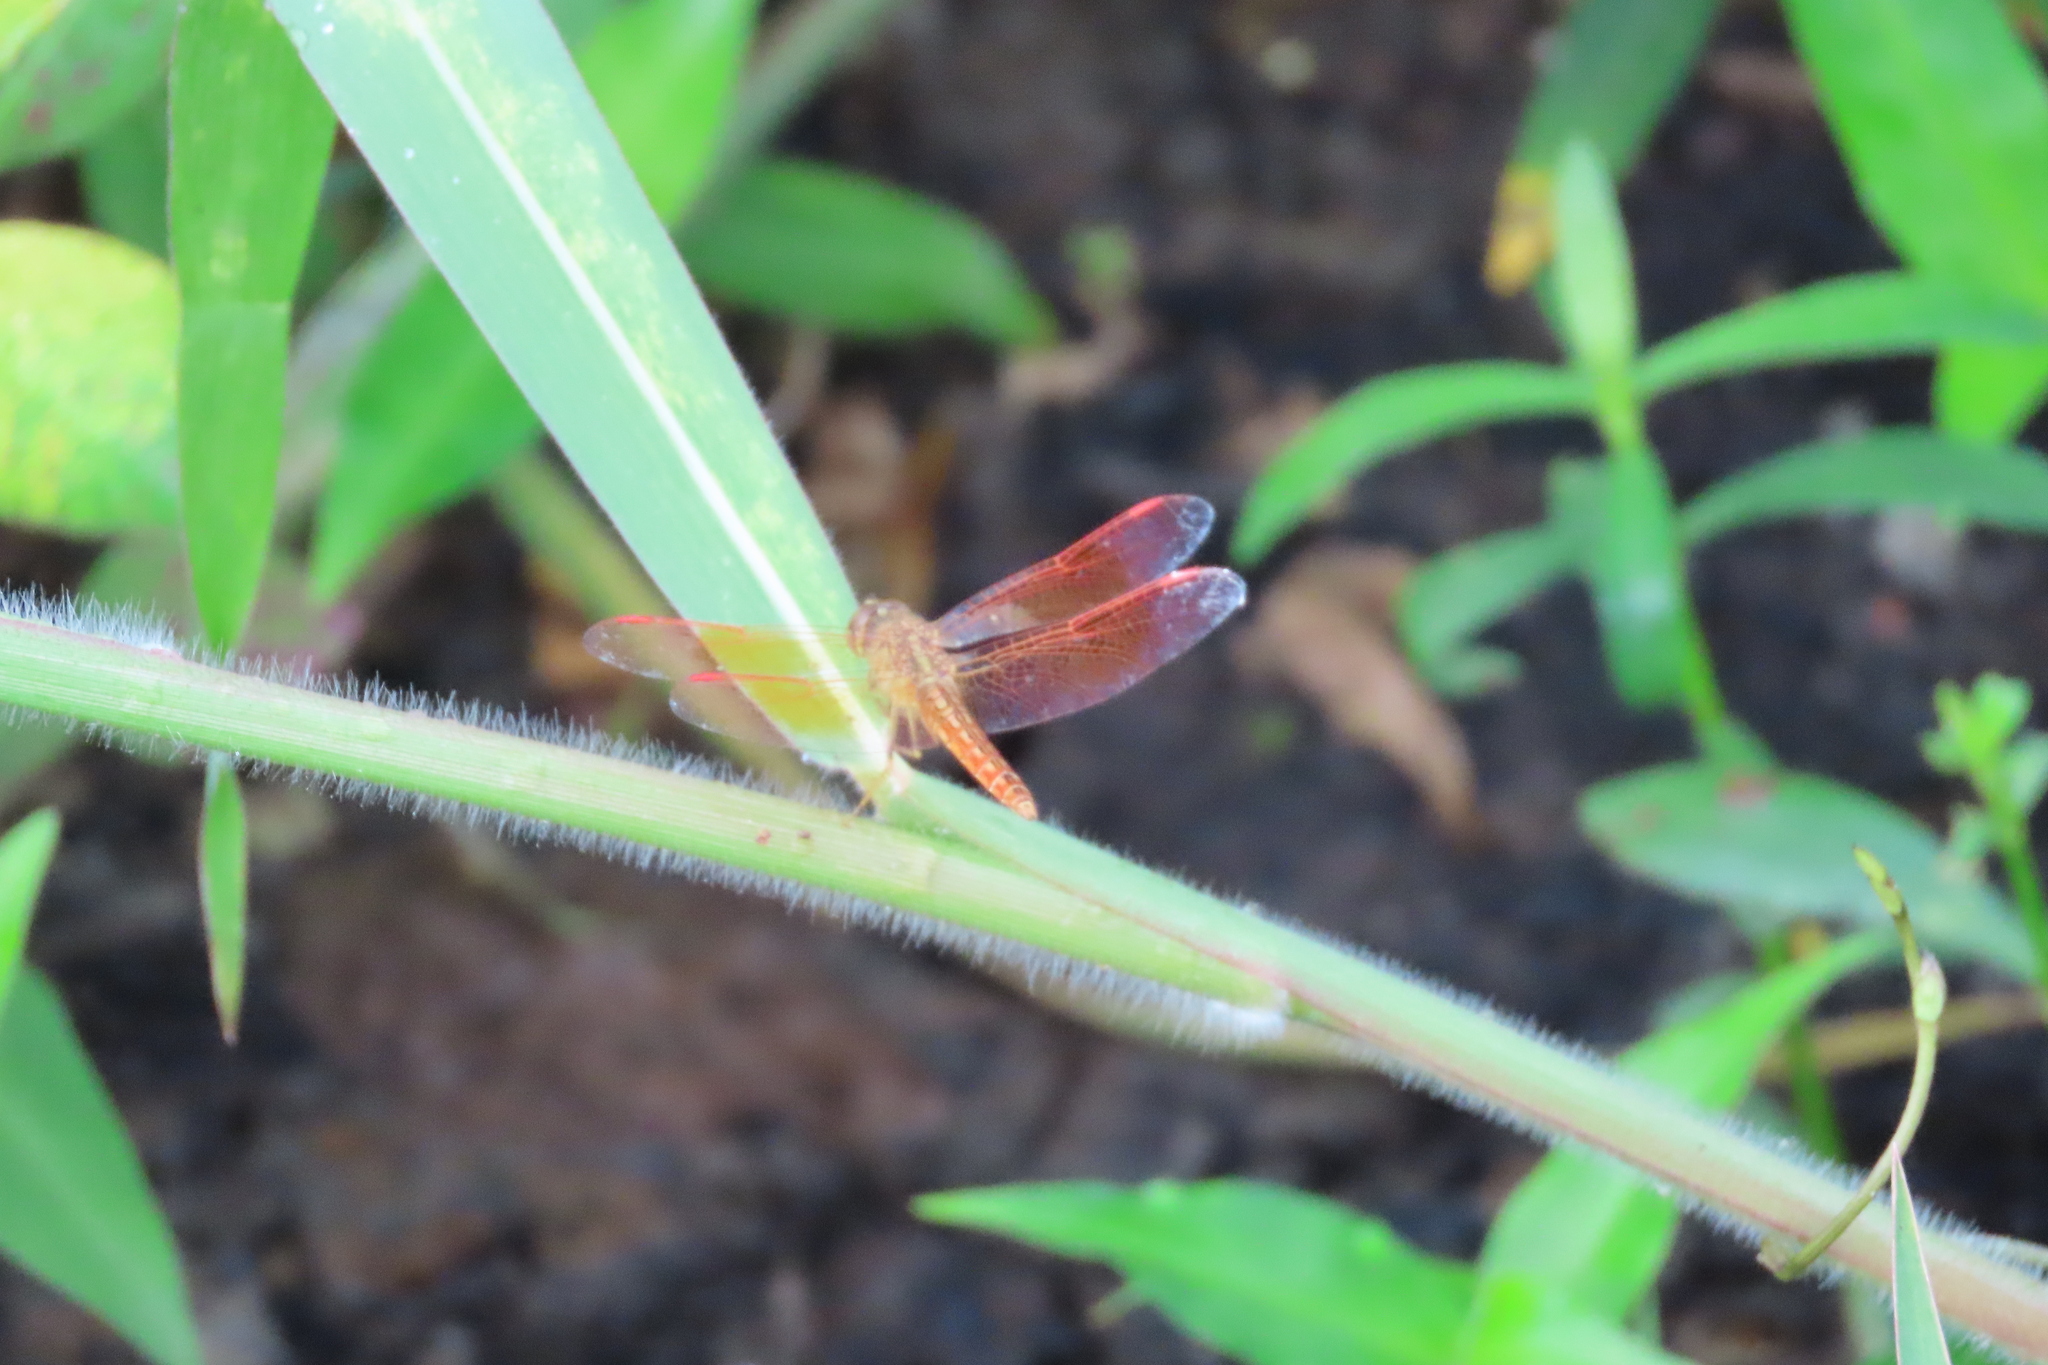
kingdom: Animalia
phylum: Arthropoda
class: Insecta
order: Odonata
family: Libellulidae
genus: Brachythemis
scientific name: Brachythemis contaminata
